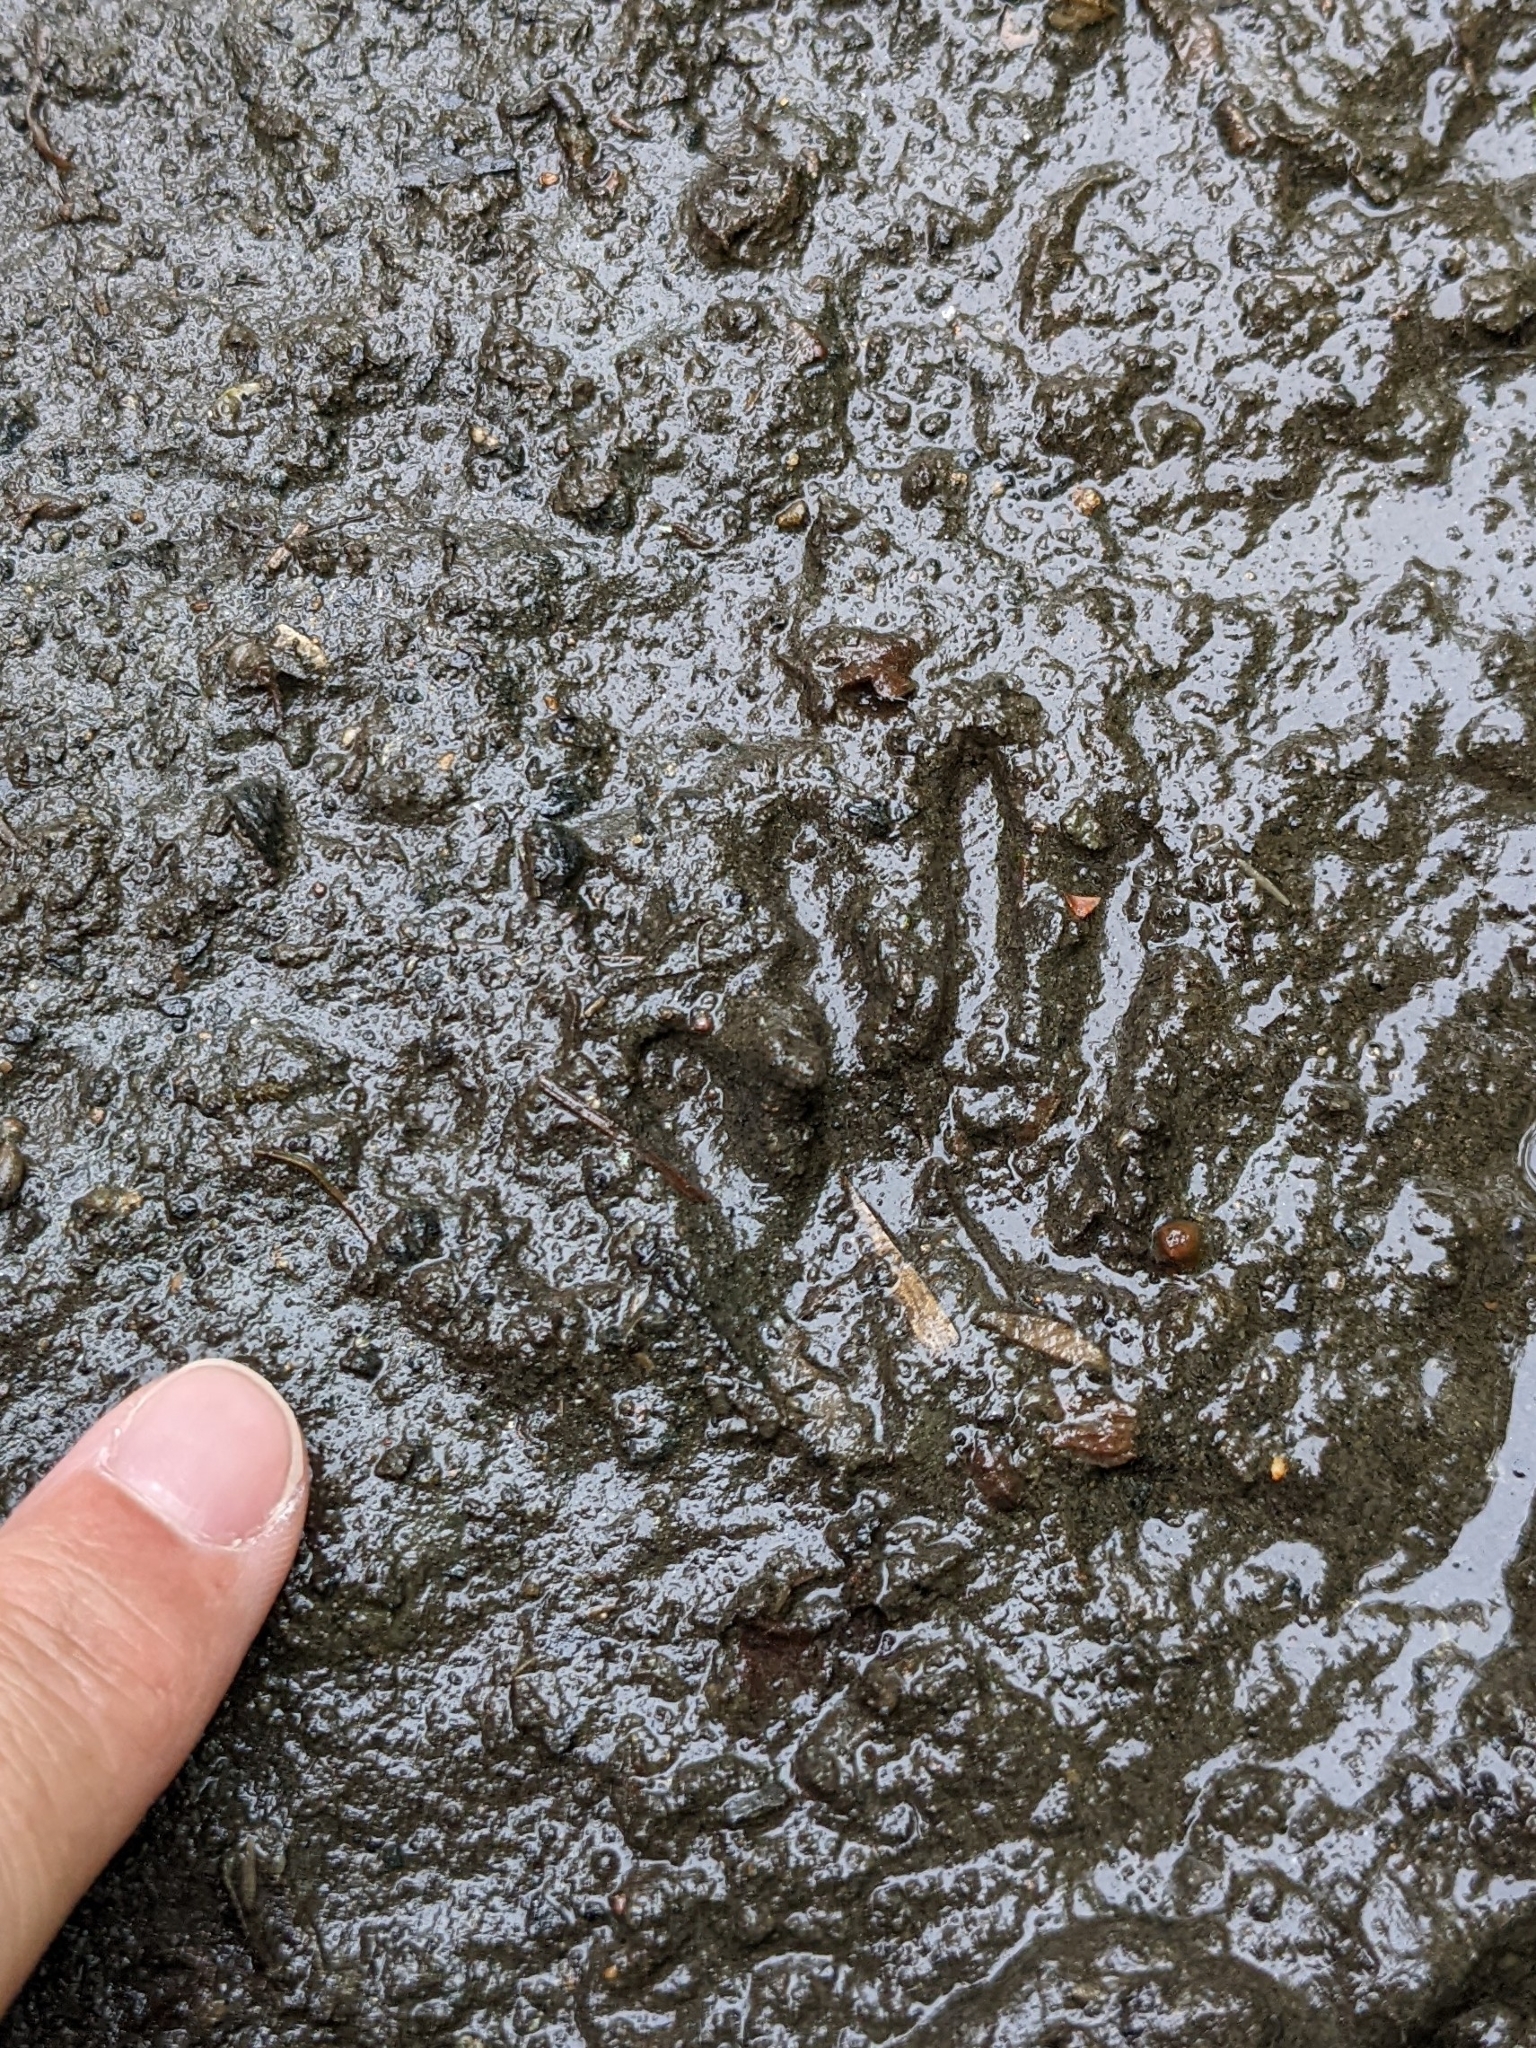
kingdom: Animalia
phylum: Chordata
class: Mammalia
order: Carnivora
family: Procyonidae
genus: Procyon
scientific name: Procyon lotor
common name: Raccoon
